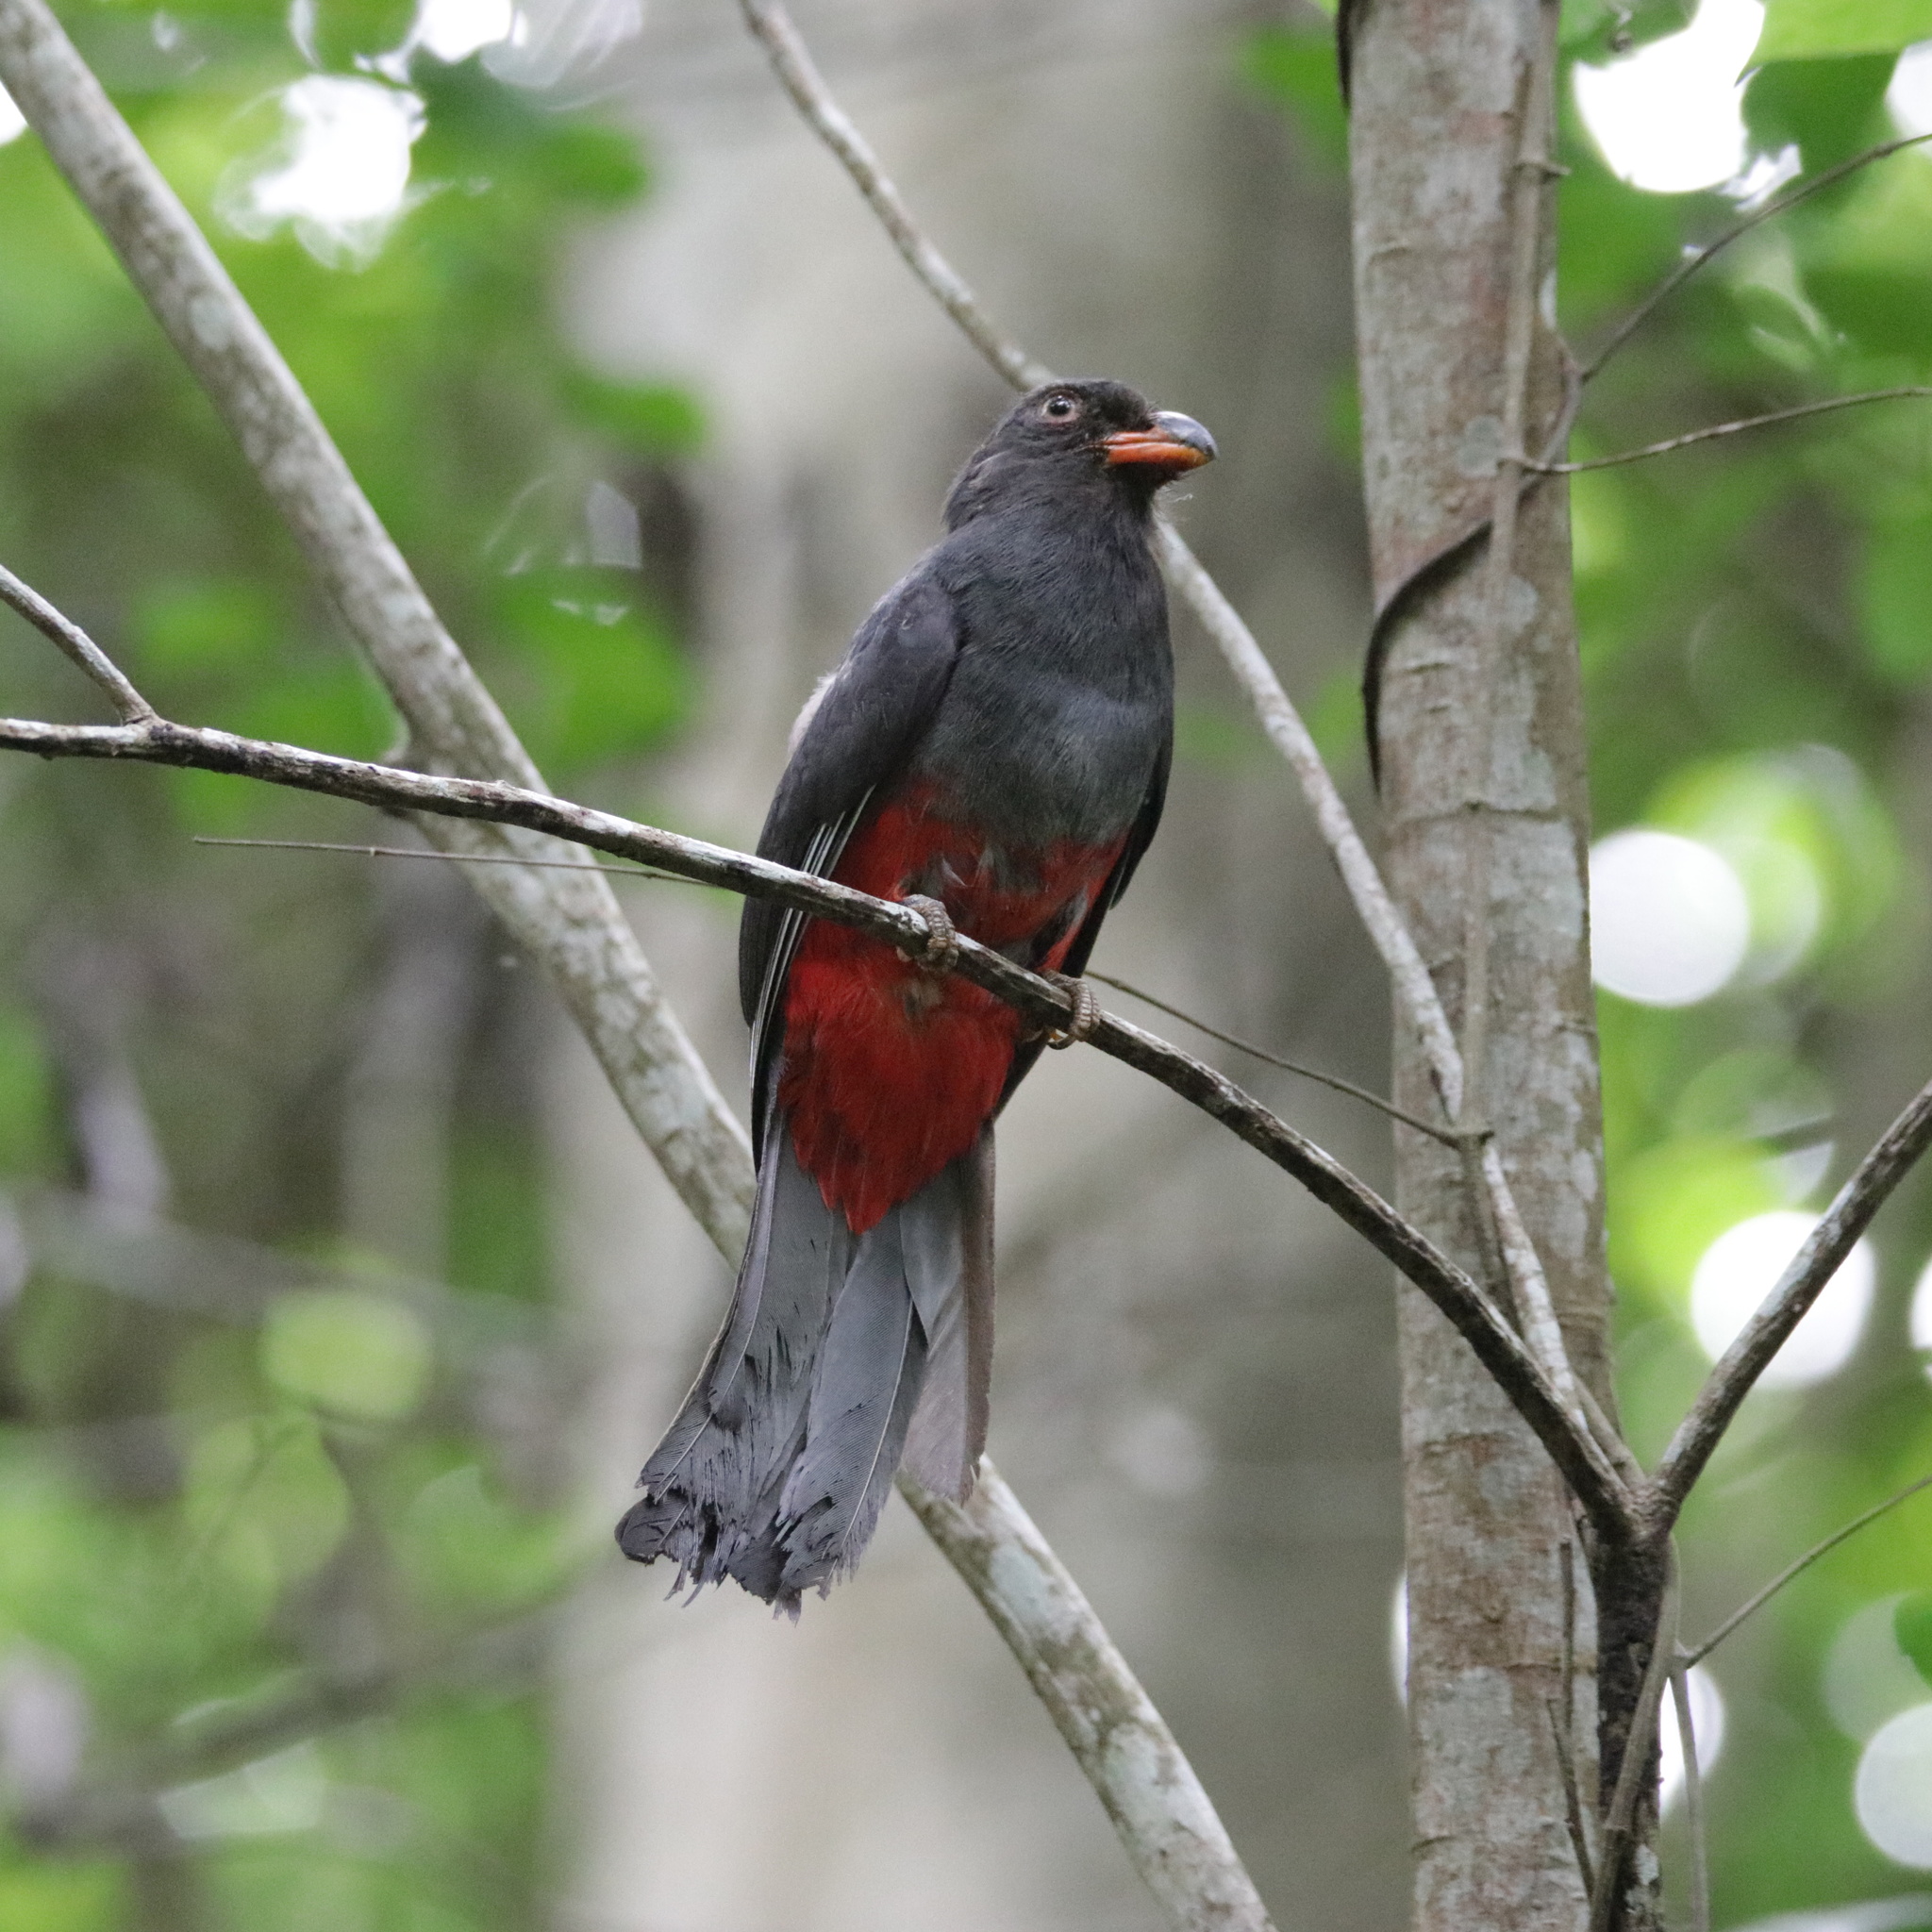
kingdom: Animalia
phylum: Chordata
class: Aves
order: Trogoniformes
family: Trogonidae
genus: Trogon
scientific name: Trogon massena
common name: Slaty-tailed trogon
